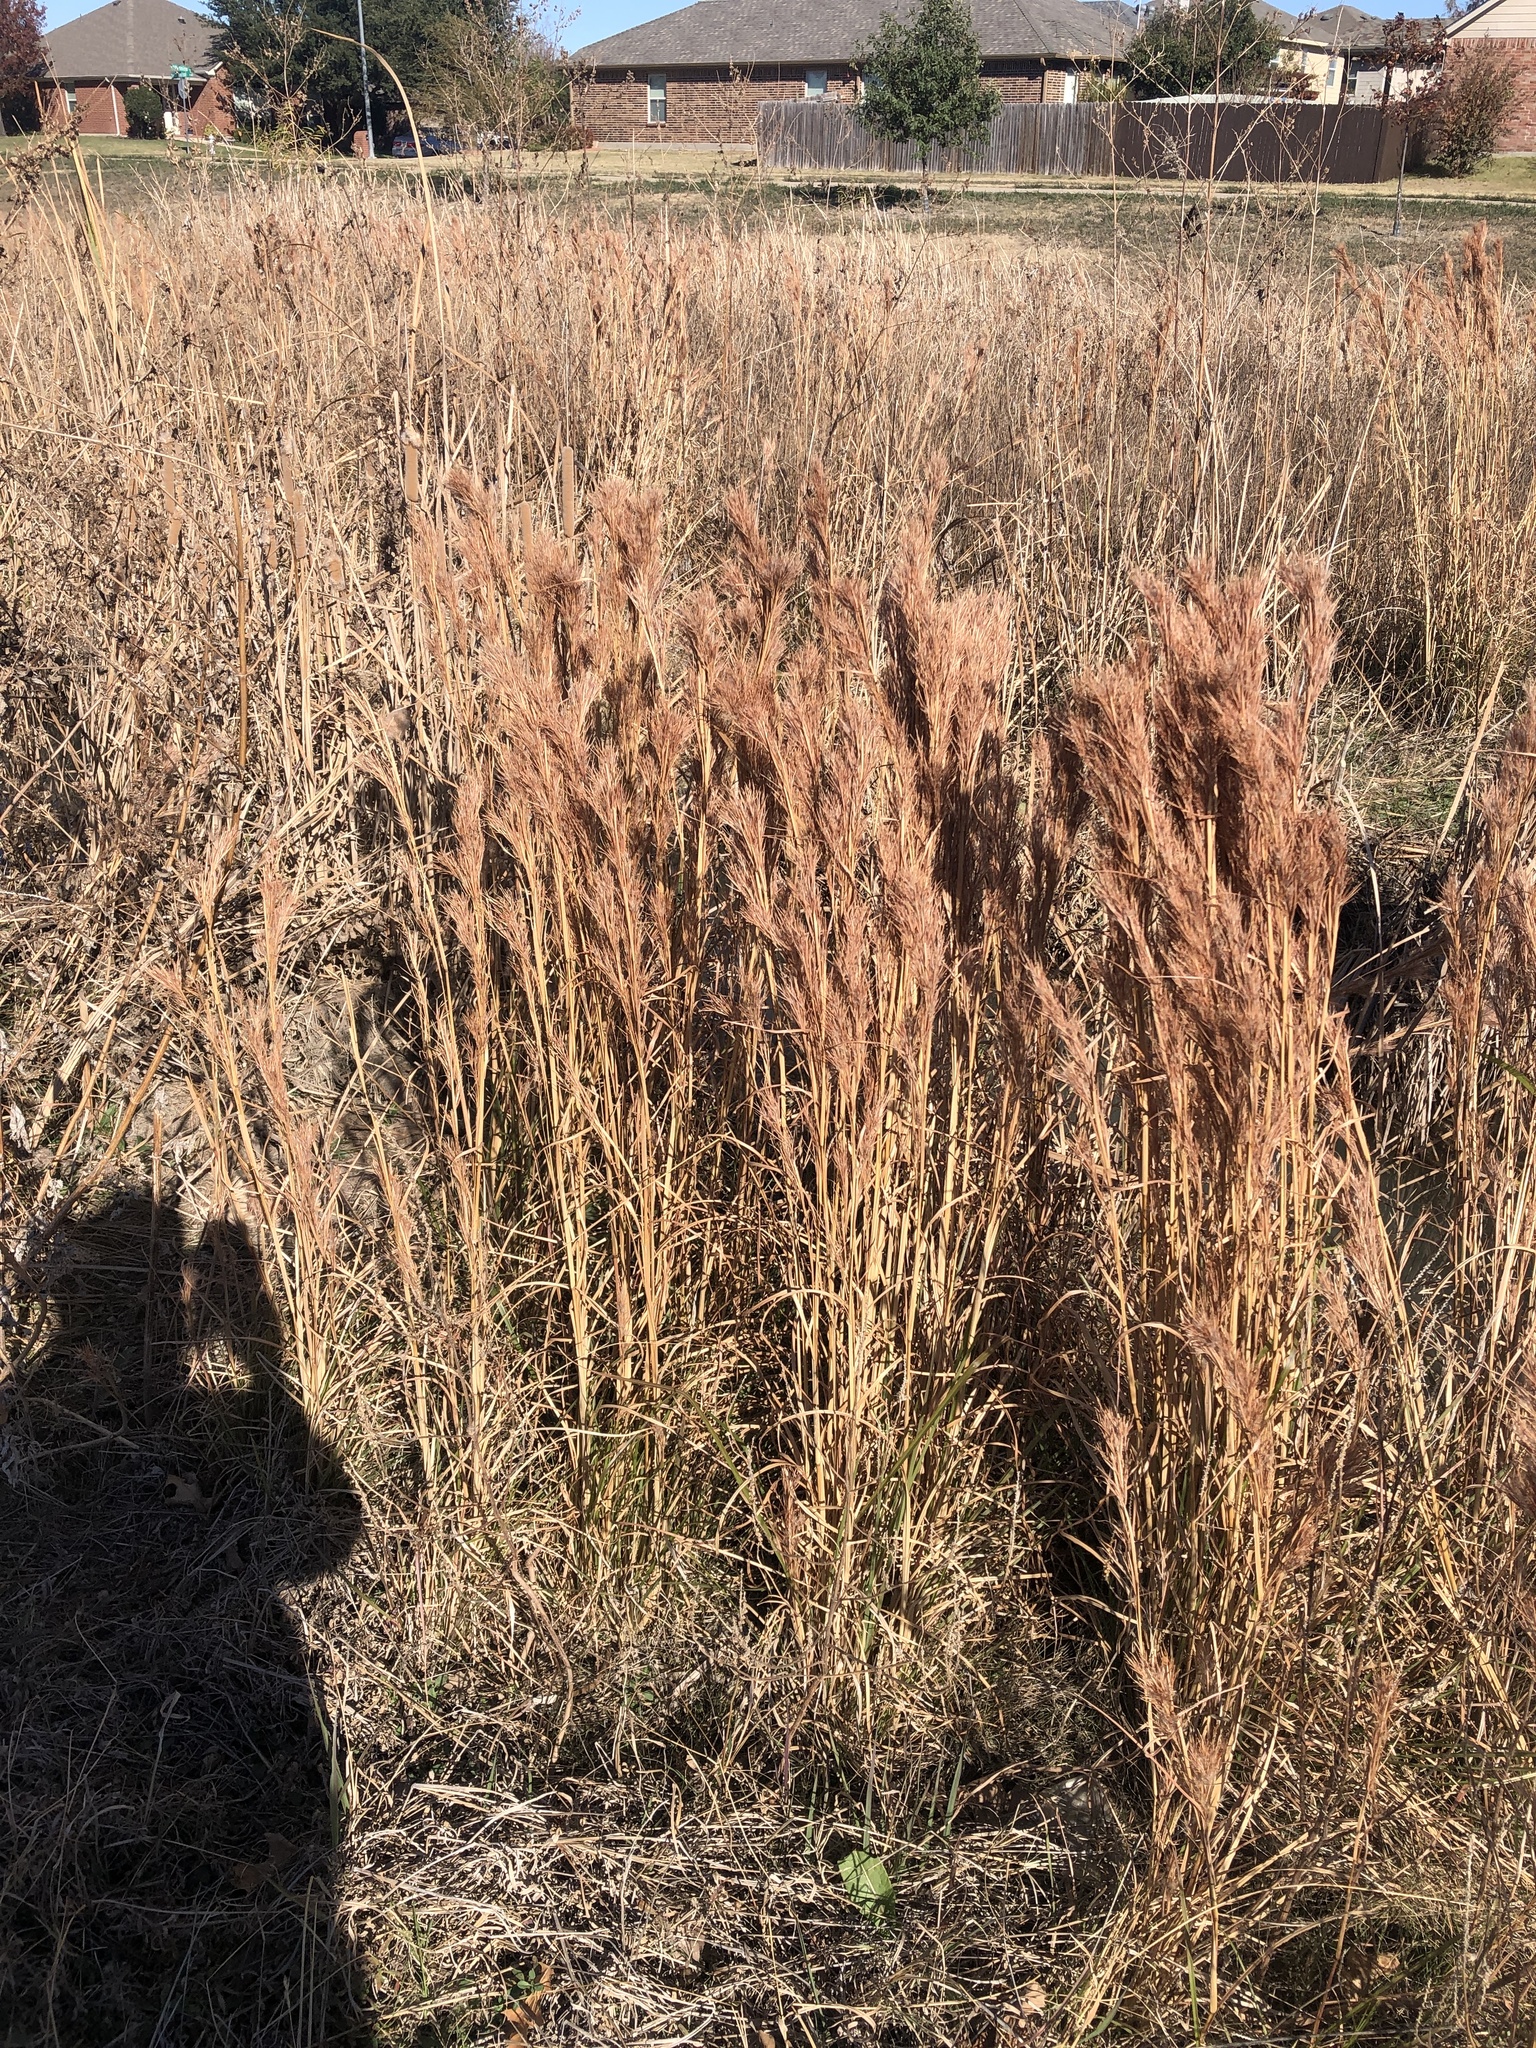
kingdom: Plantae
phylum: Tracheophyta
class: Liliopsida
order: Poales
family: Poaceae
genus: Andropogon
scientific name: Andropogon tenuispatheus
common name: Bushy bluestem
